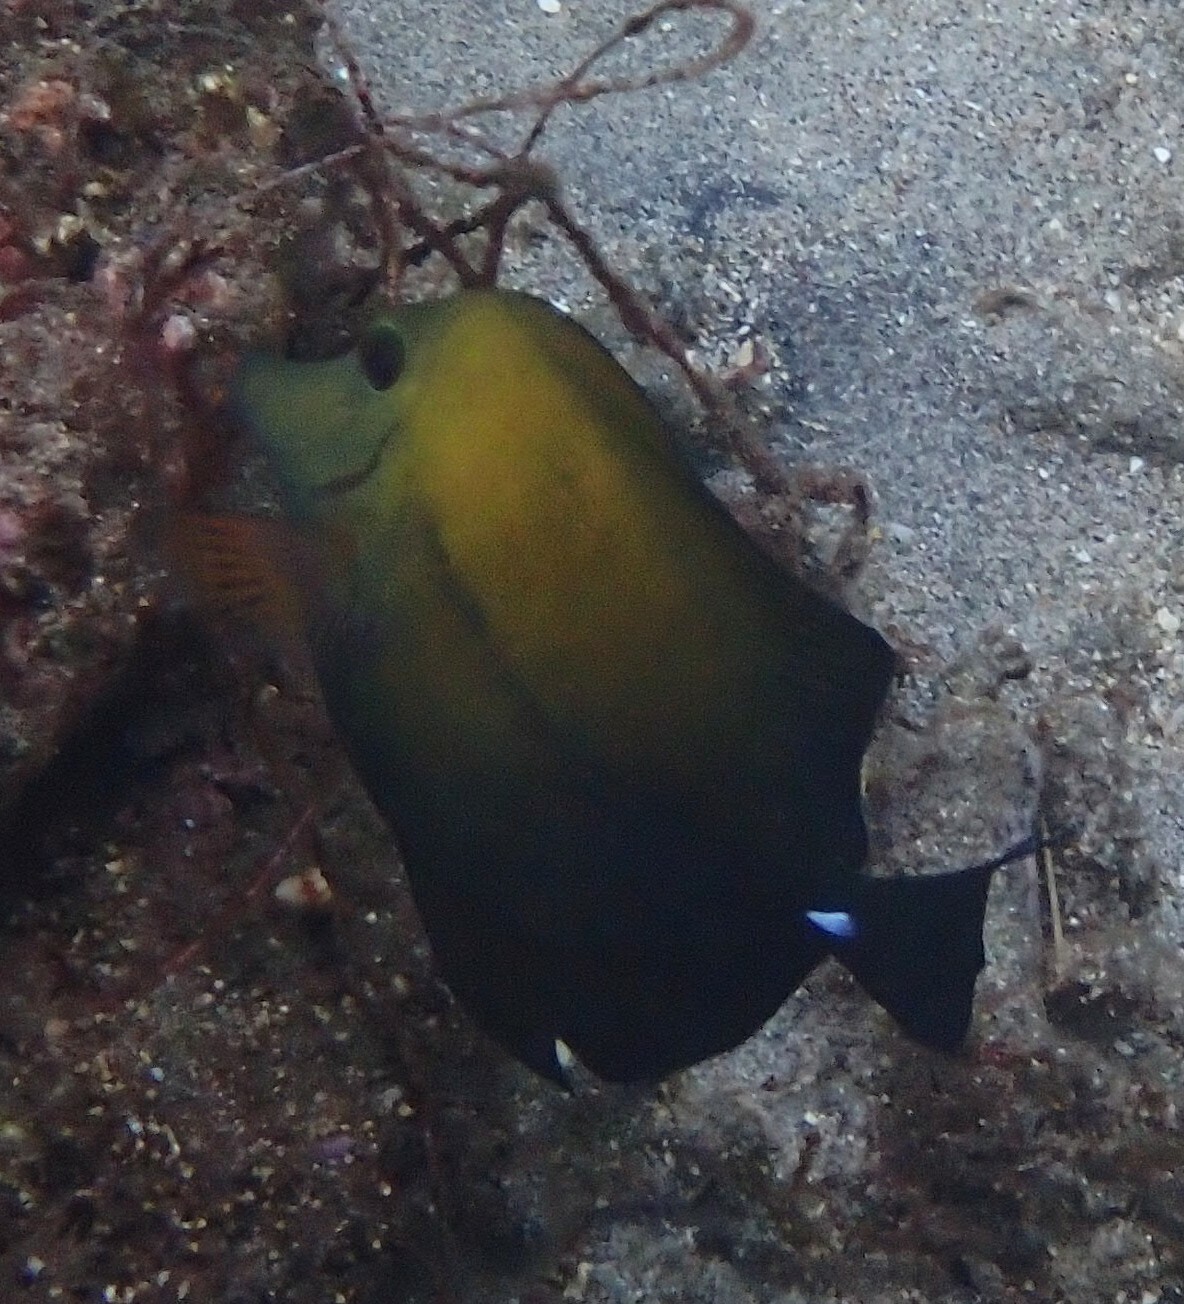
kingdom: Animalia
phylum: Chordata
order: Perciformes
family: Acanthuridae
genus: Zebrasoma
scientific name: Zebrasoma scopas
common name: Twotone tang
